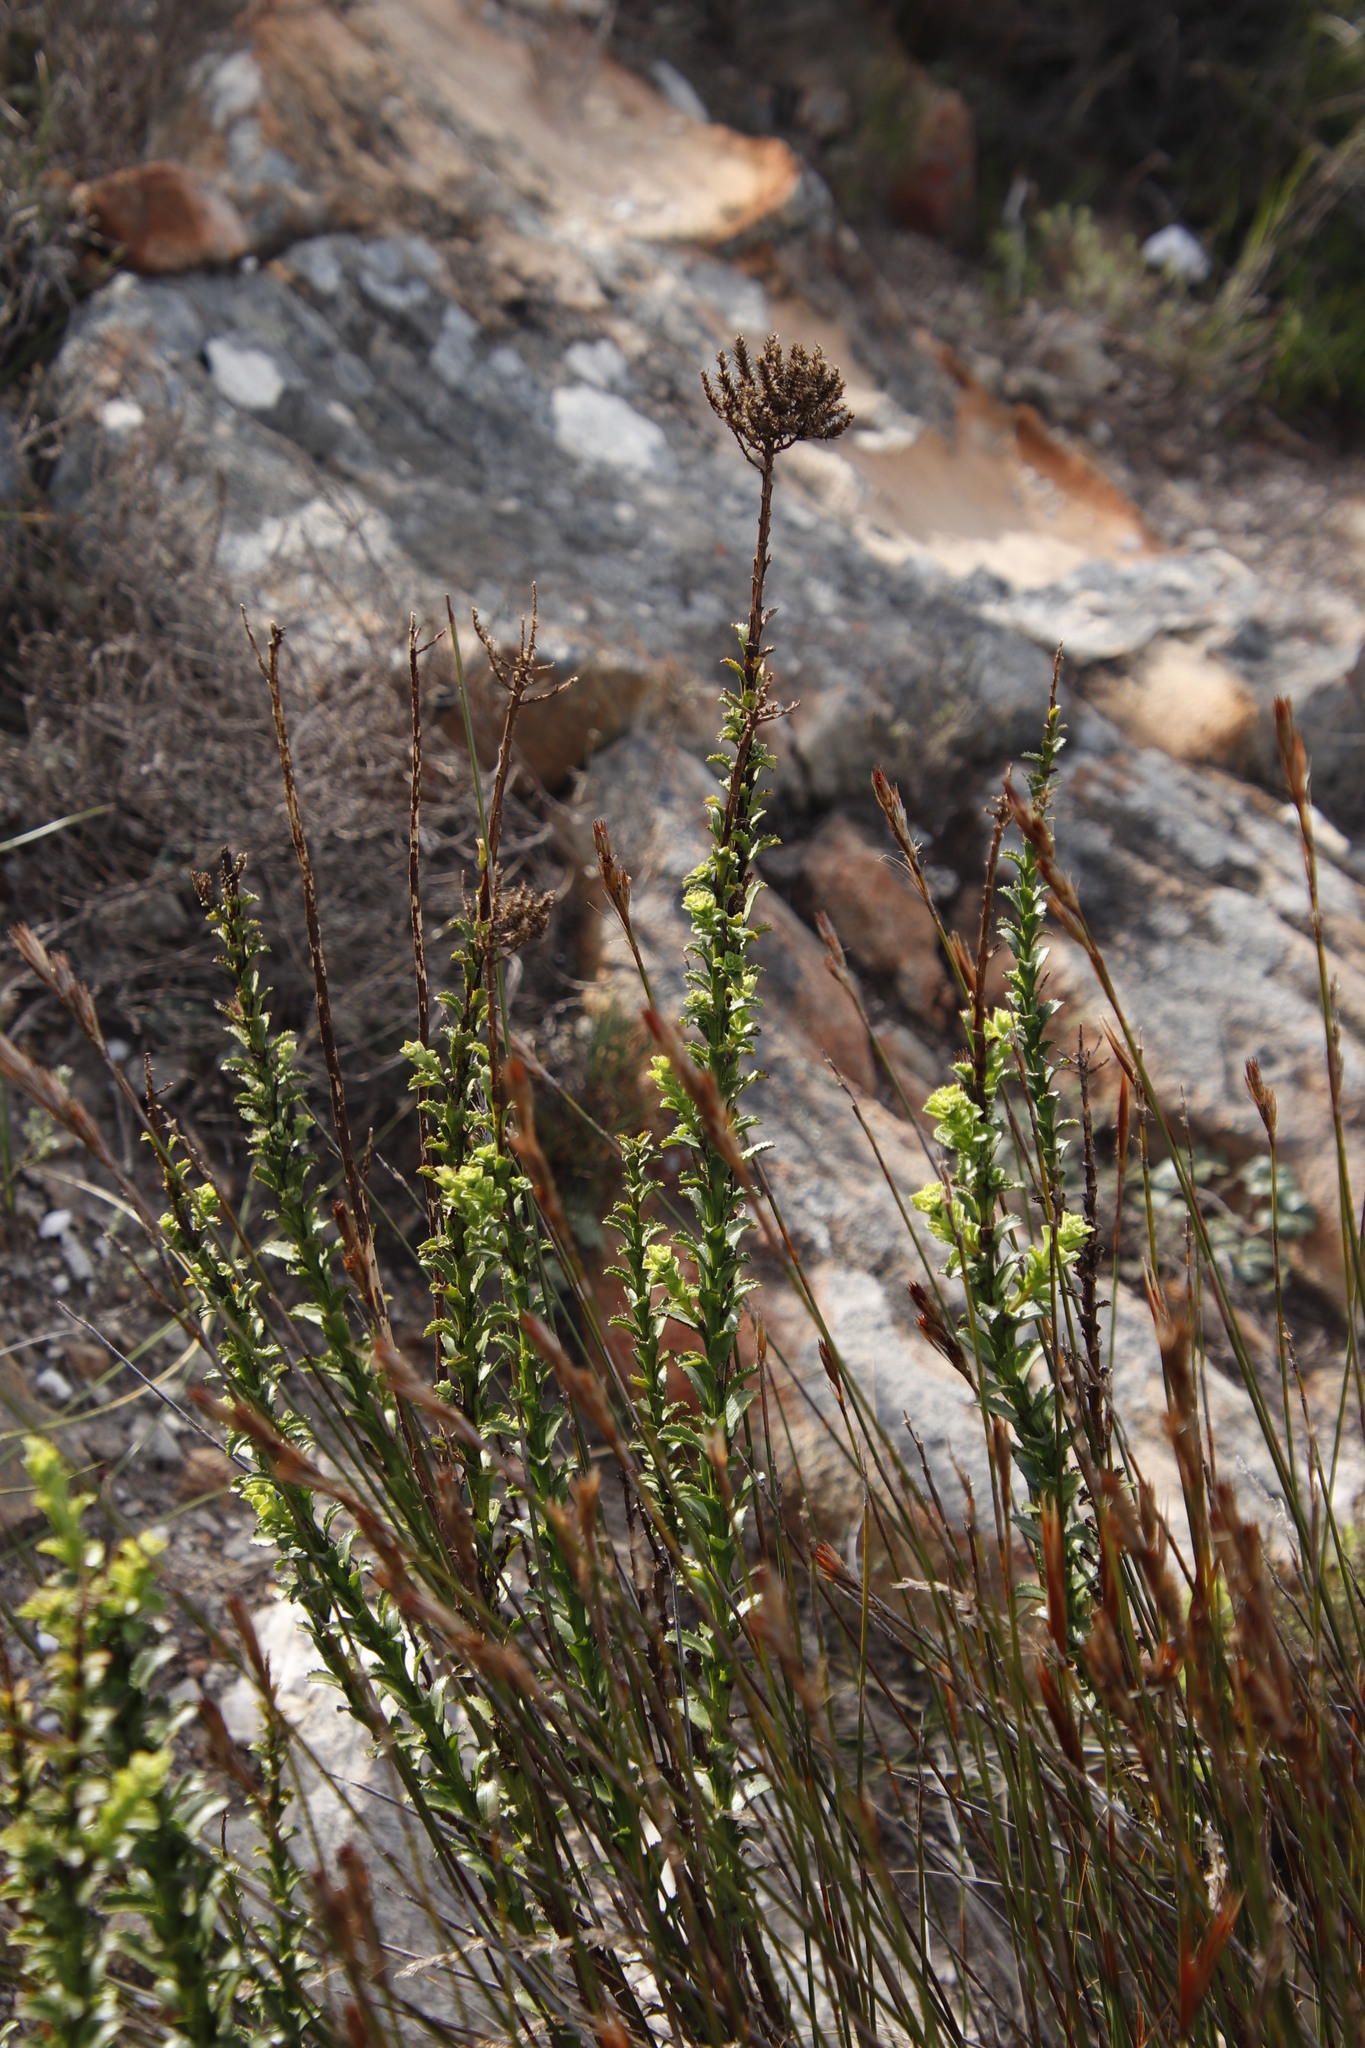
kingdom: Plantae
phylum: Tracheophyta
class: Magnoliopsida
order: Lamiales
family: Scrophulariaceae
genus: Pseudoselago
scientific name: Pseudoselago spuria
